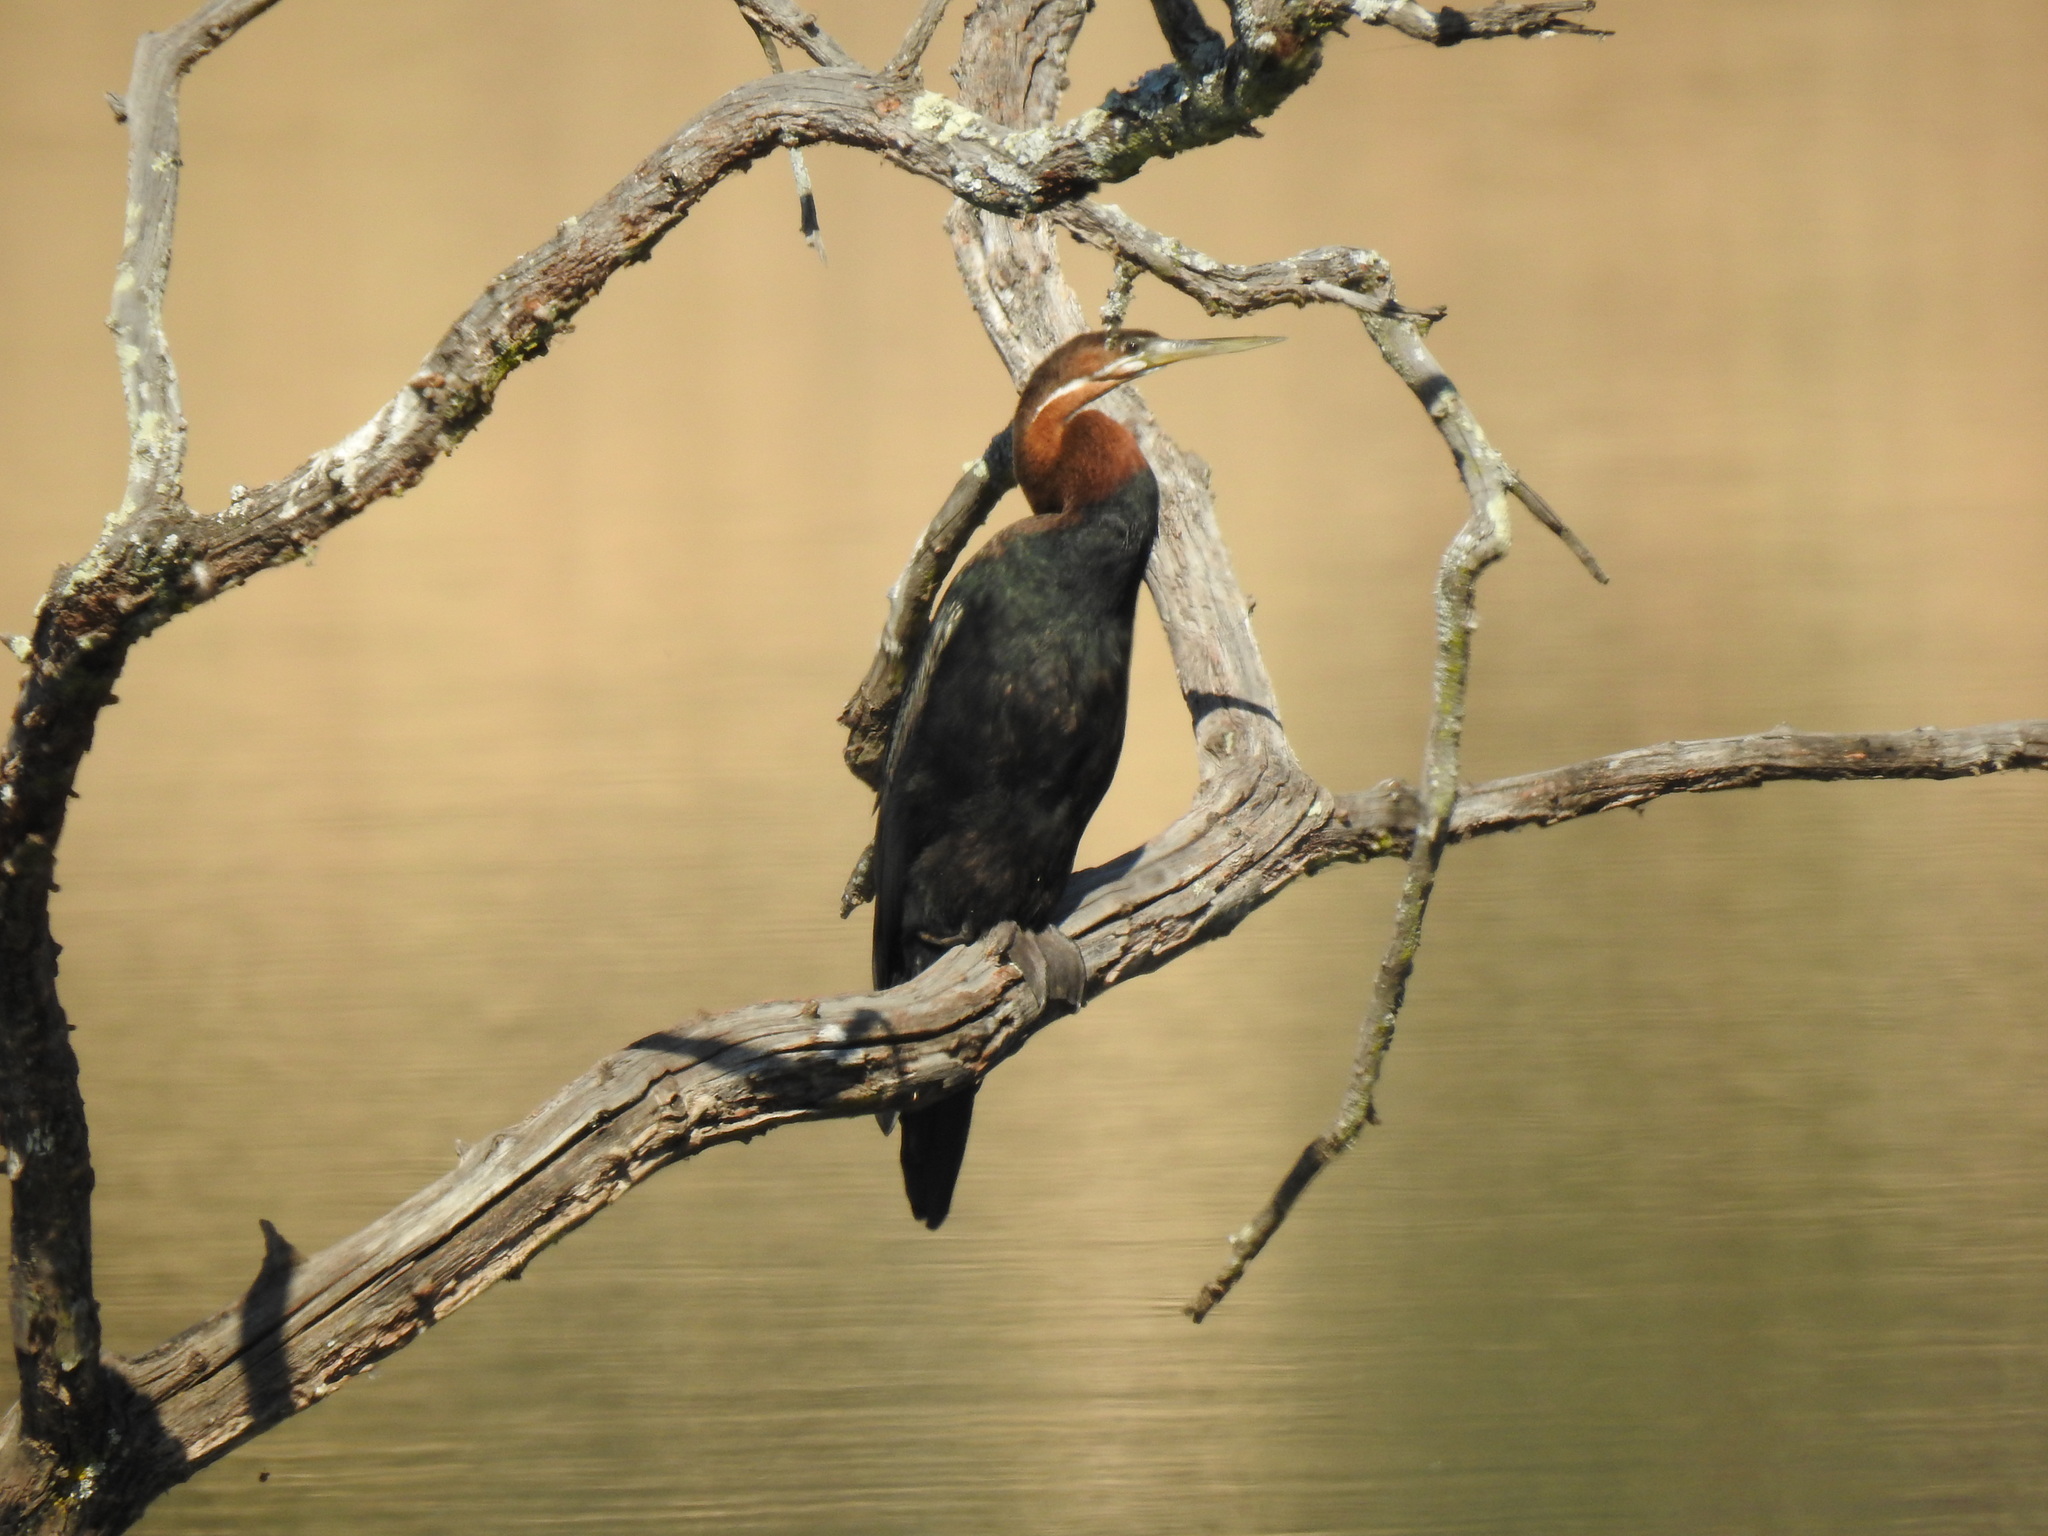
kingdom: Animalia
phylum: Chordata
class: Aves
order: Suliformes
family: Anhingidae
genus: Anhinga
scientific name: Anhinga rufa
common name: African darter
